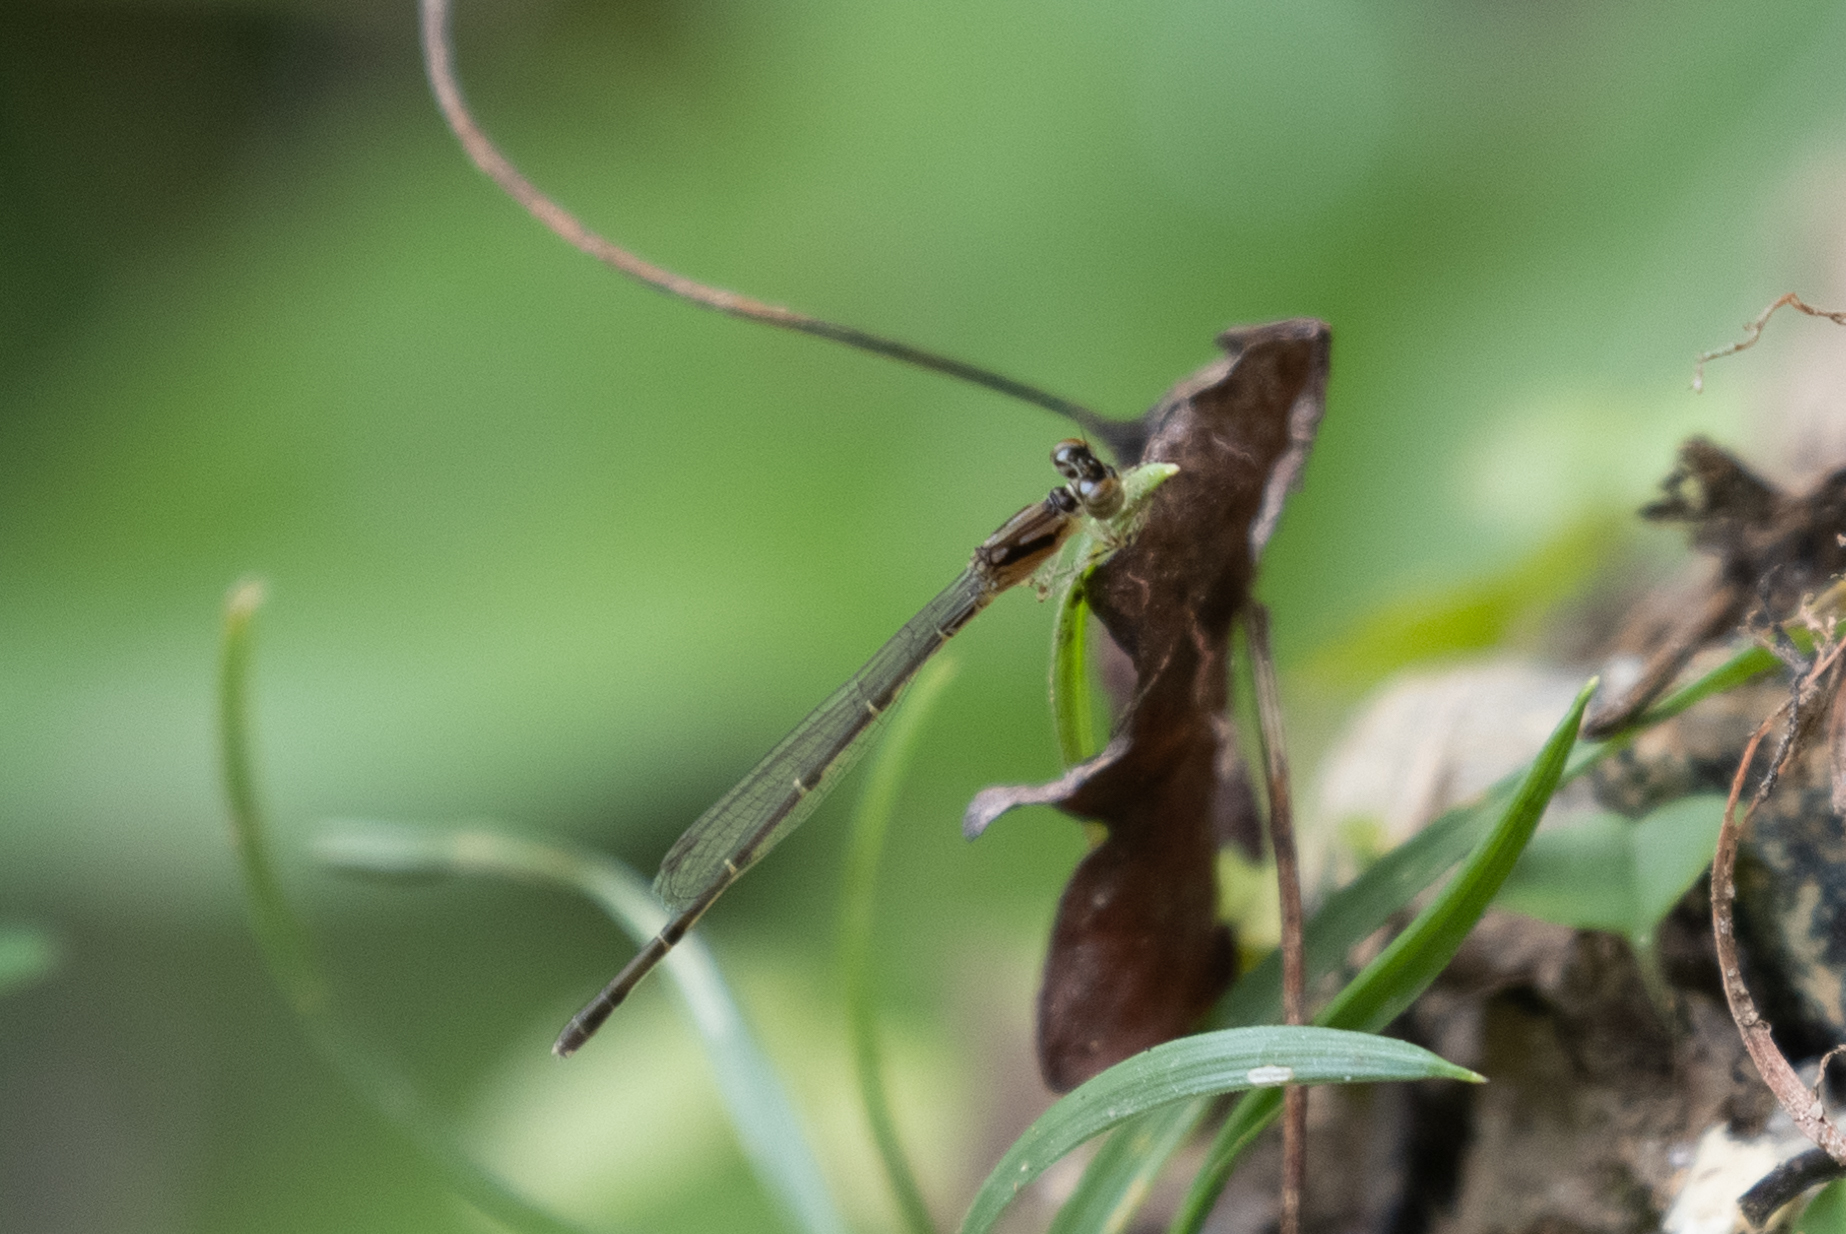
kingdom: Animalia
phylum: Arthropoda
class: Insecta
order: Odonata
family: Coenagrionidae
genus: Ischnura
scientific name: Ischnura posita
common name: Fragile forktail
